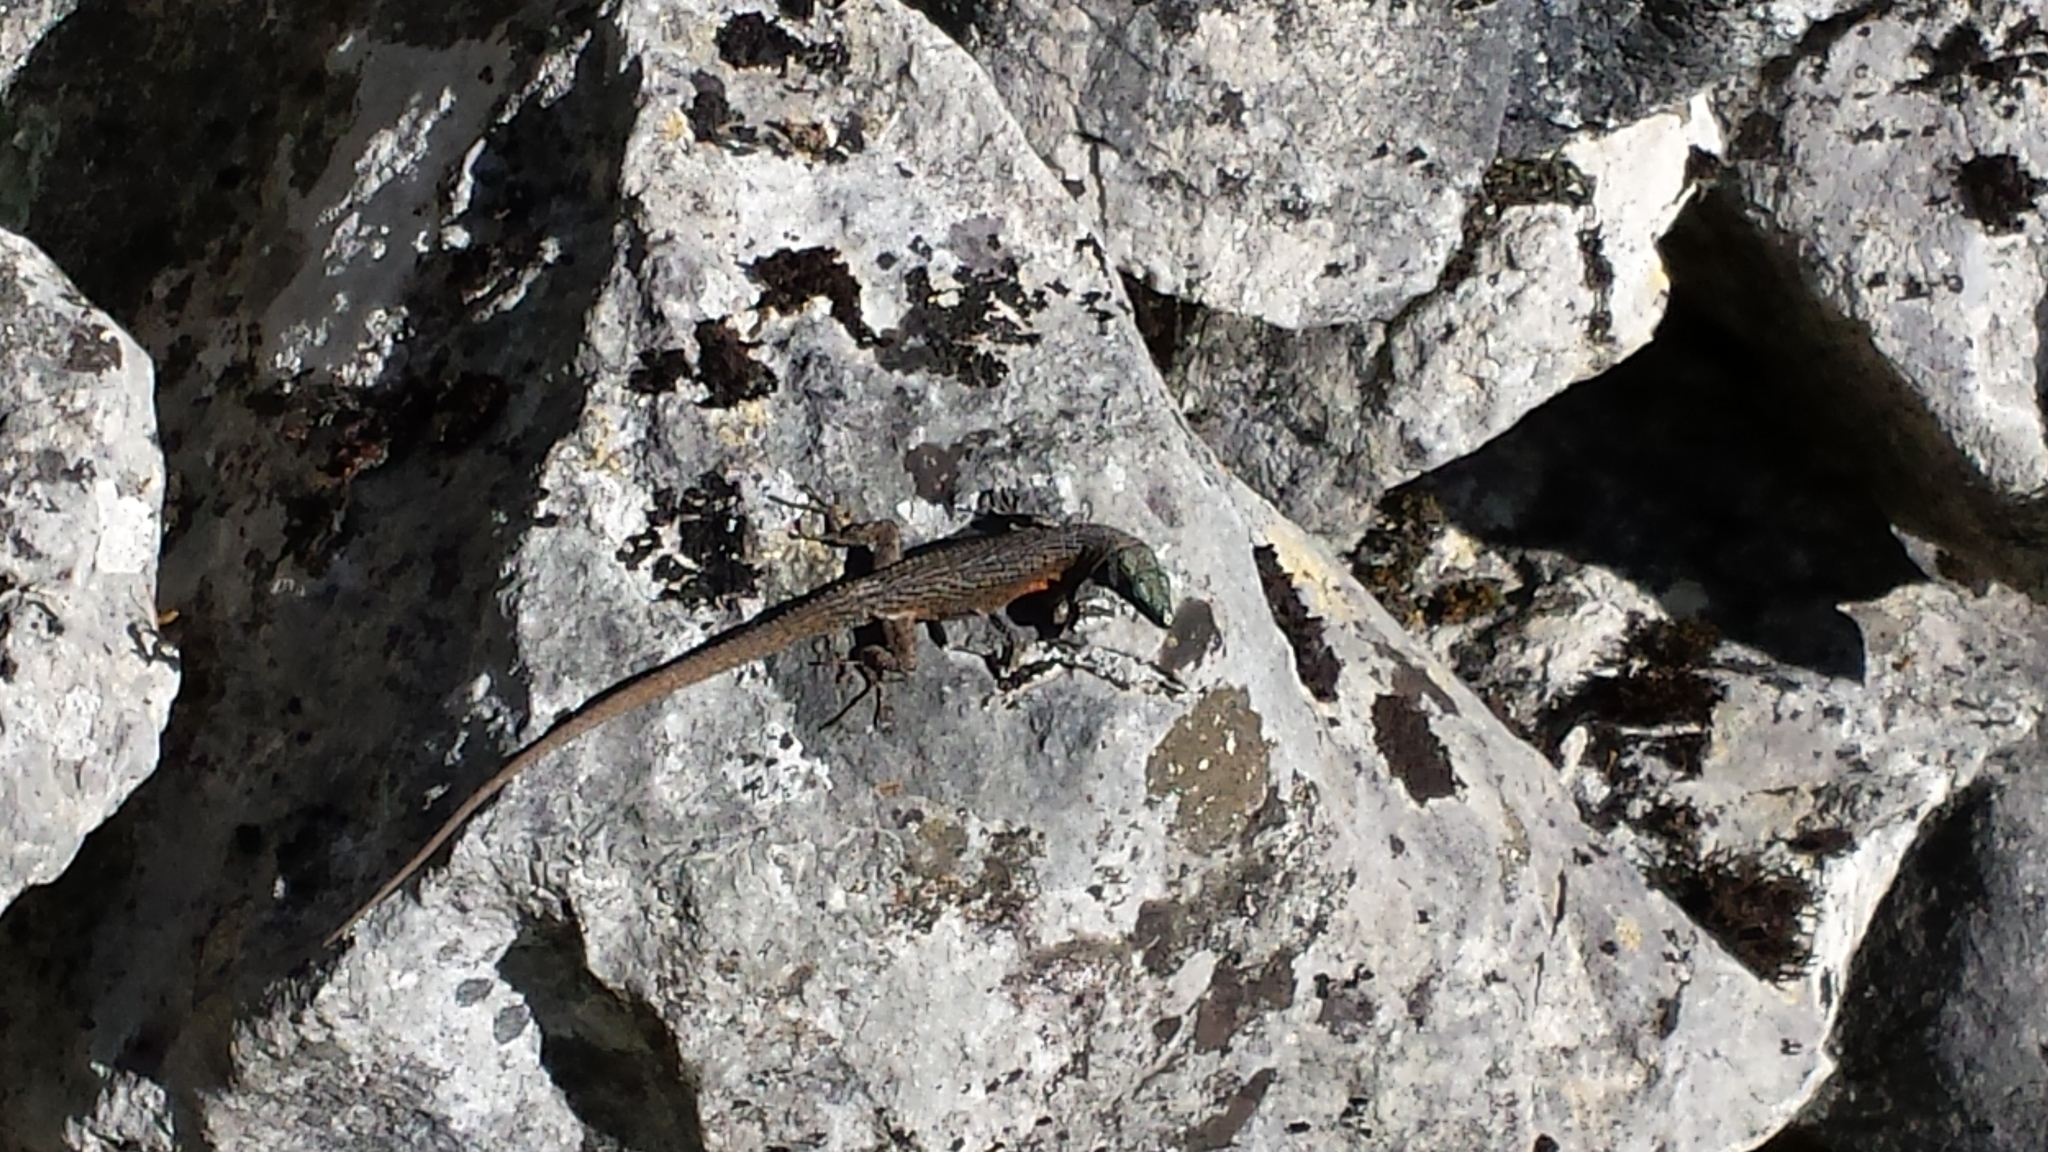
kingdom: Animalia
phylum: Chordata
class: Squamata
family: Lacertidae
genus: Algyroides
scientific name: Algyroides nigropunctatus
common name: Blue-throated keeled lizard
